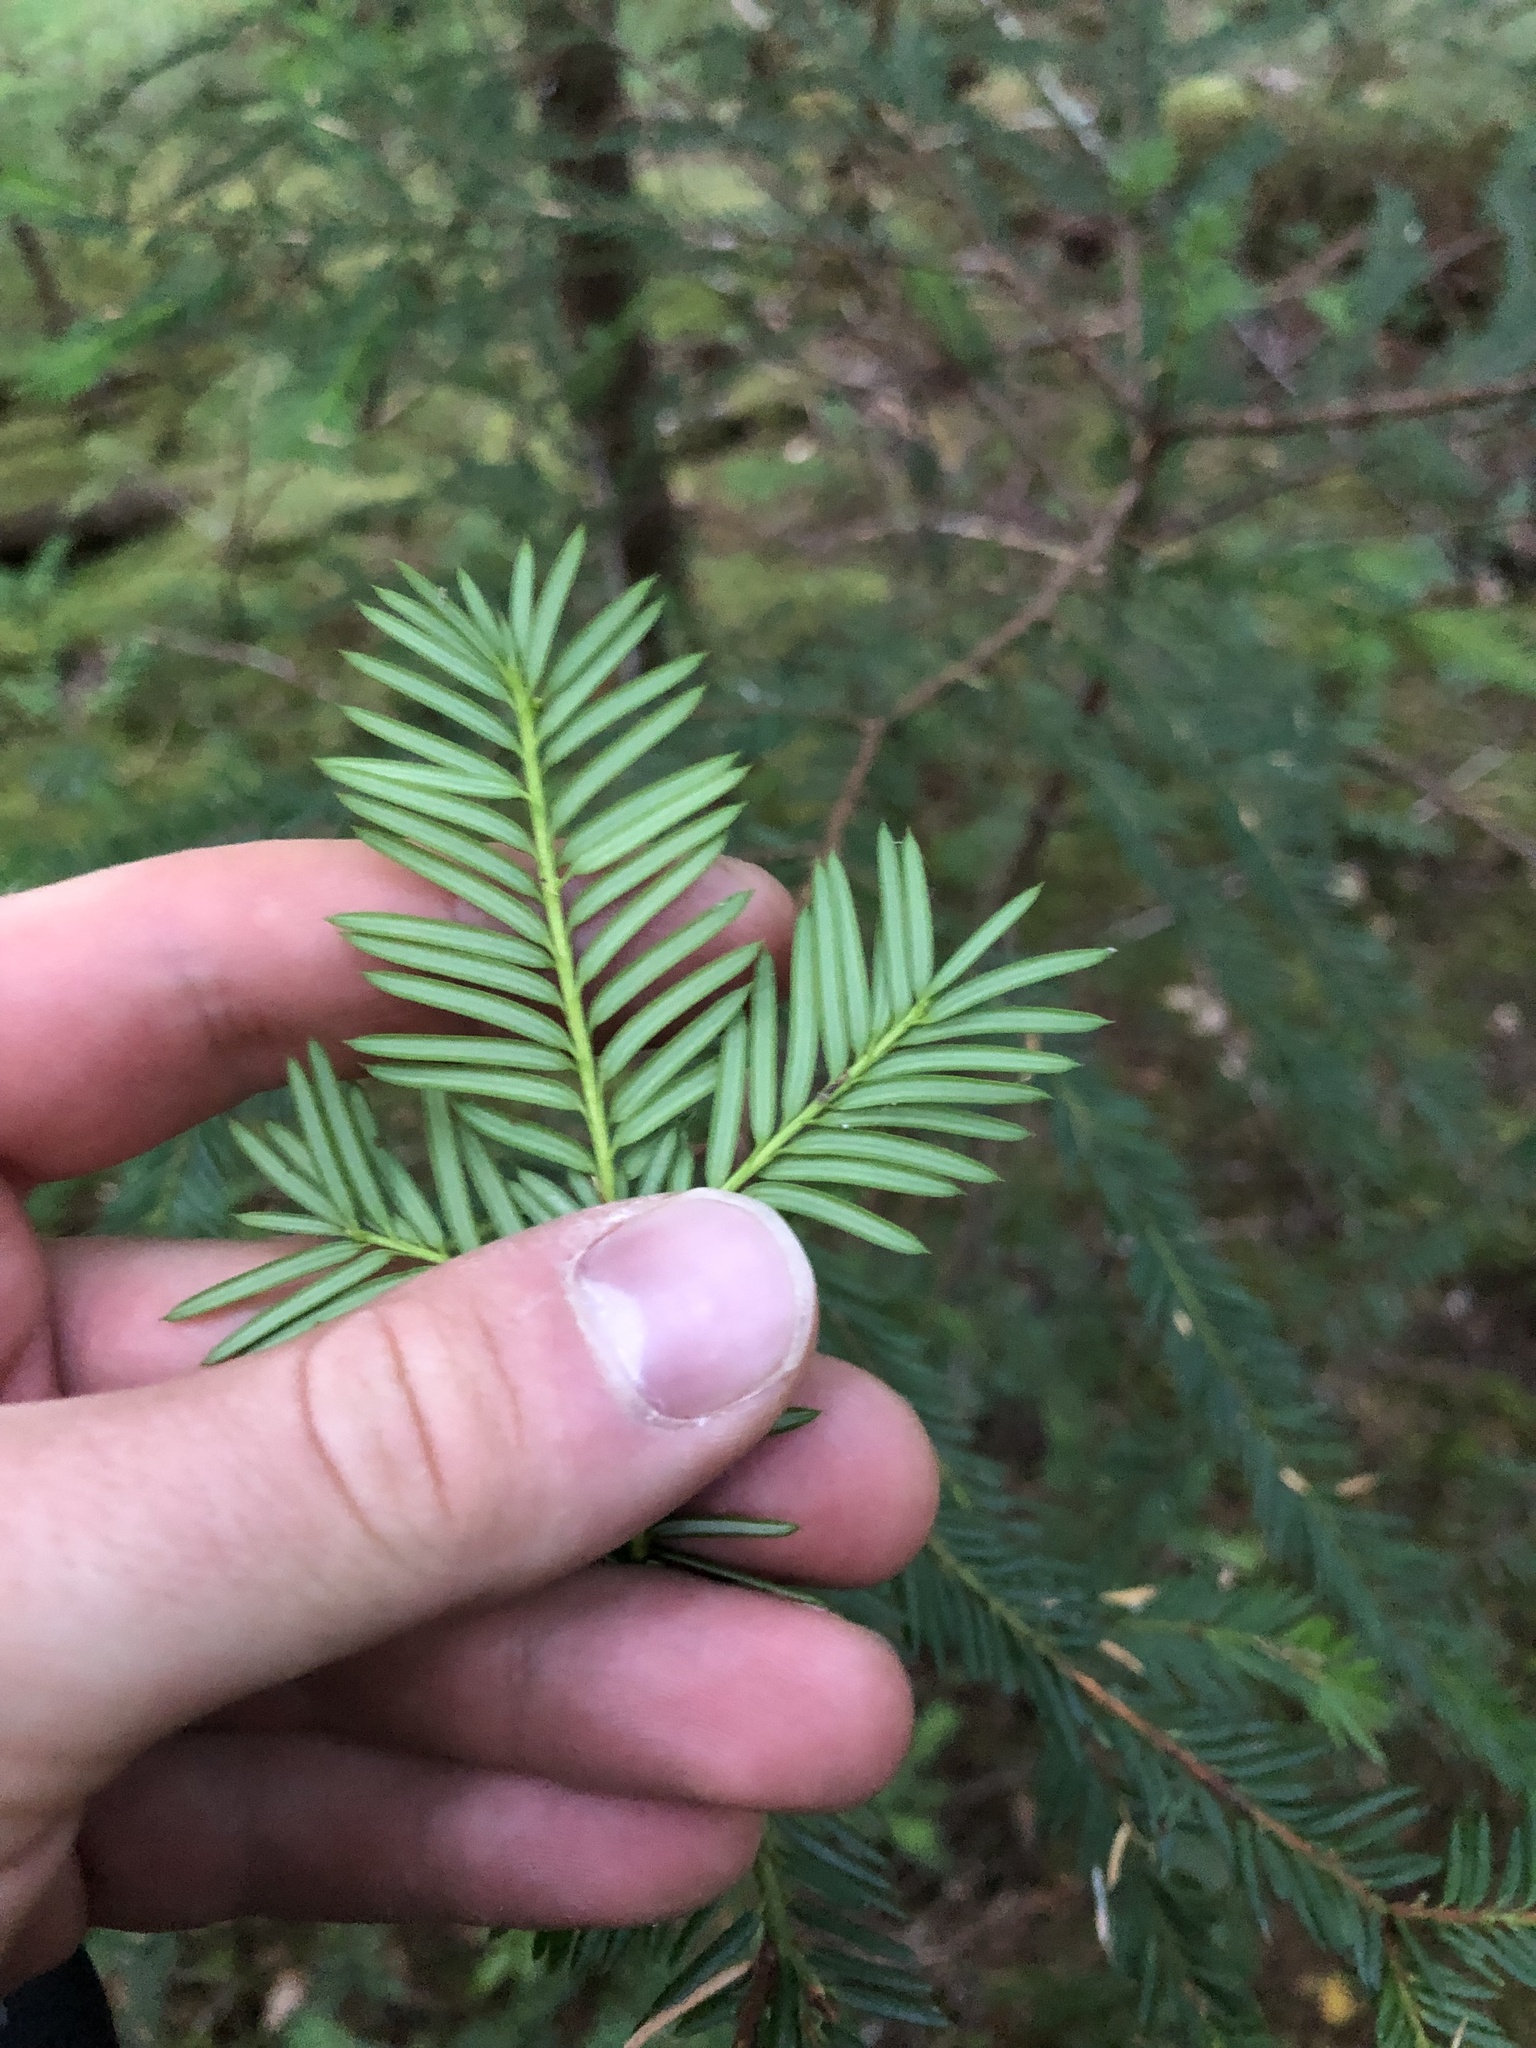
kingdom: Plantae
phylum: Tracheophyta
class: Pinopsida
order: Pinales
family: Taxaceae
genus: Taxus
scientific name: Taxus brevifolia
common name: Pacific yew
